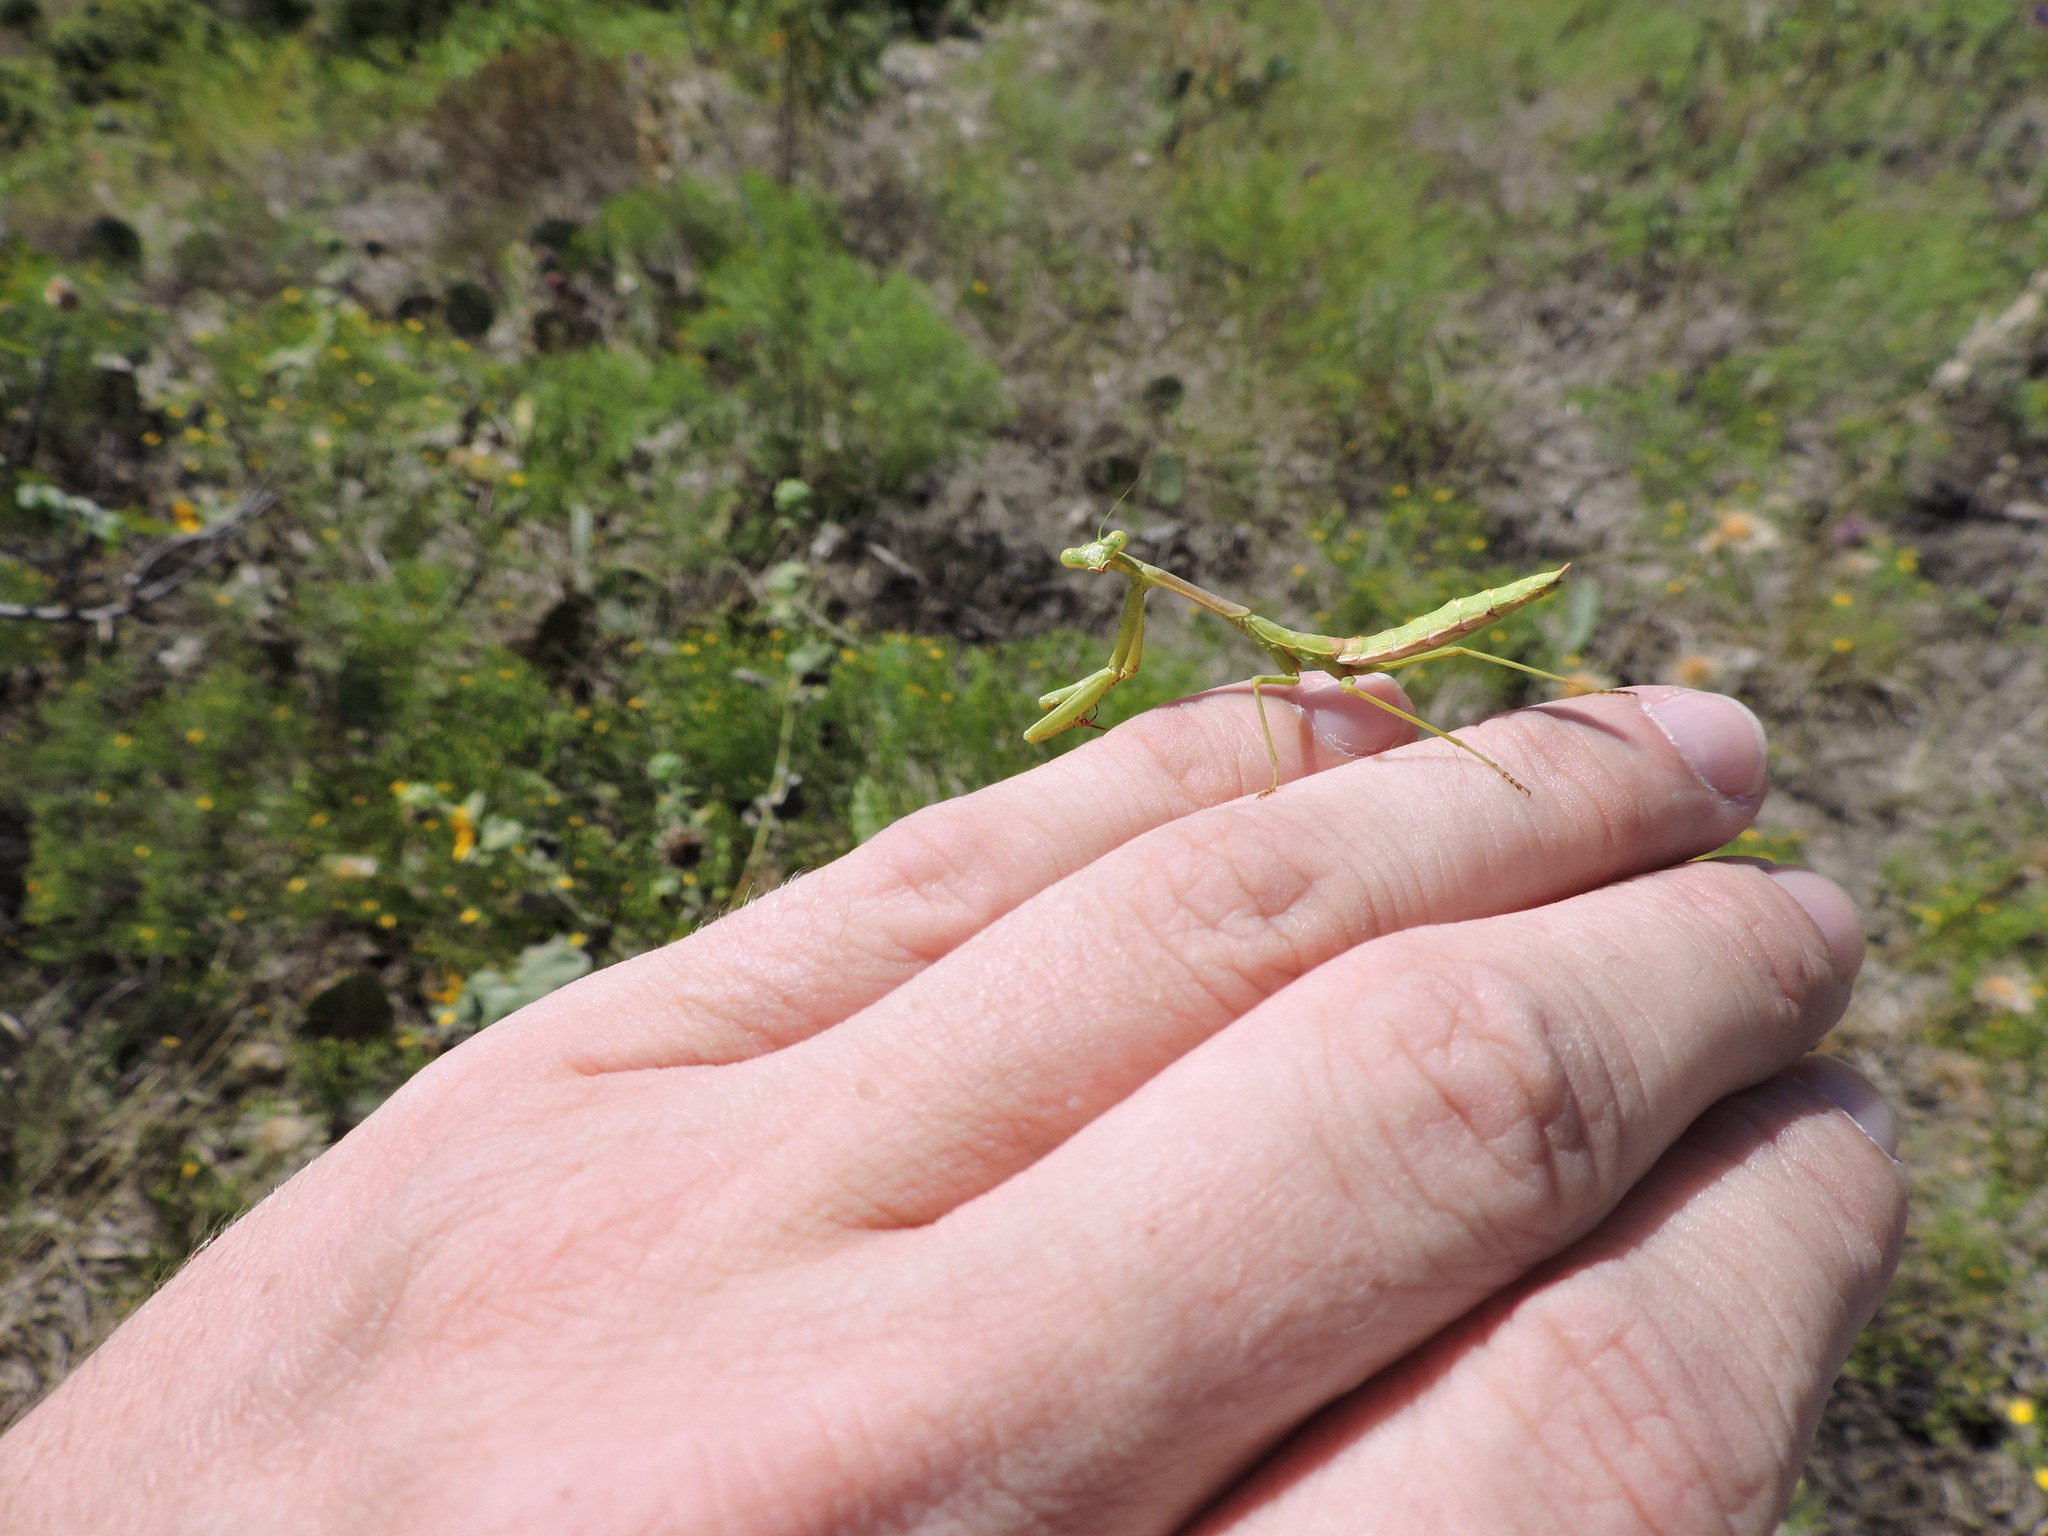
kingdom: Animalia
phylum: Arthropoda
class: Insecta
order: Mantodea
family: Mantidae
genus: Stagmomantis
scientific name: Stagmomantis carolina
